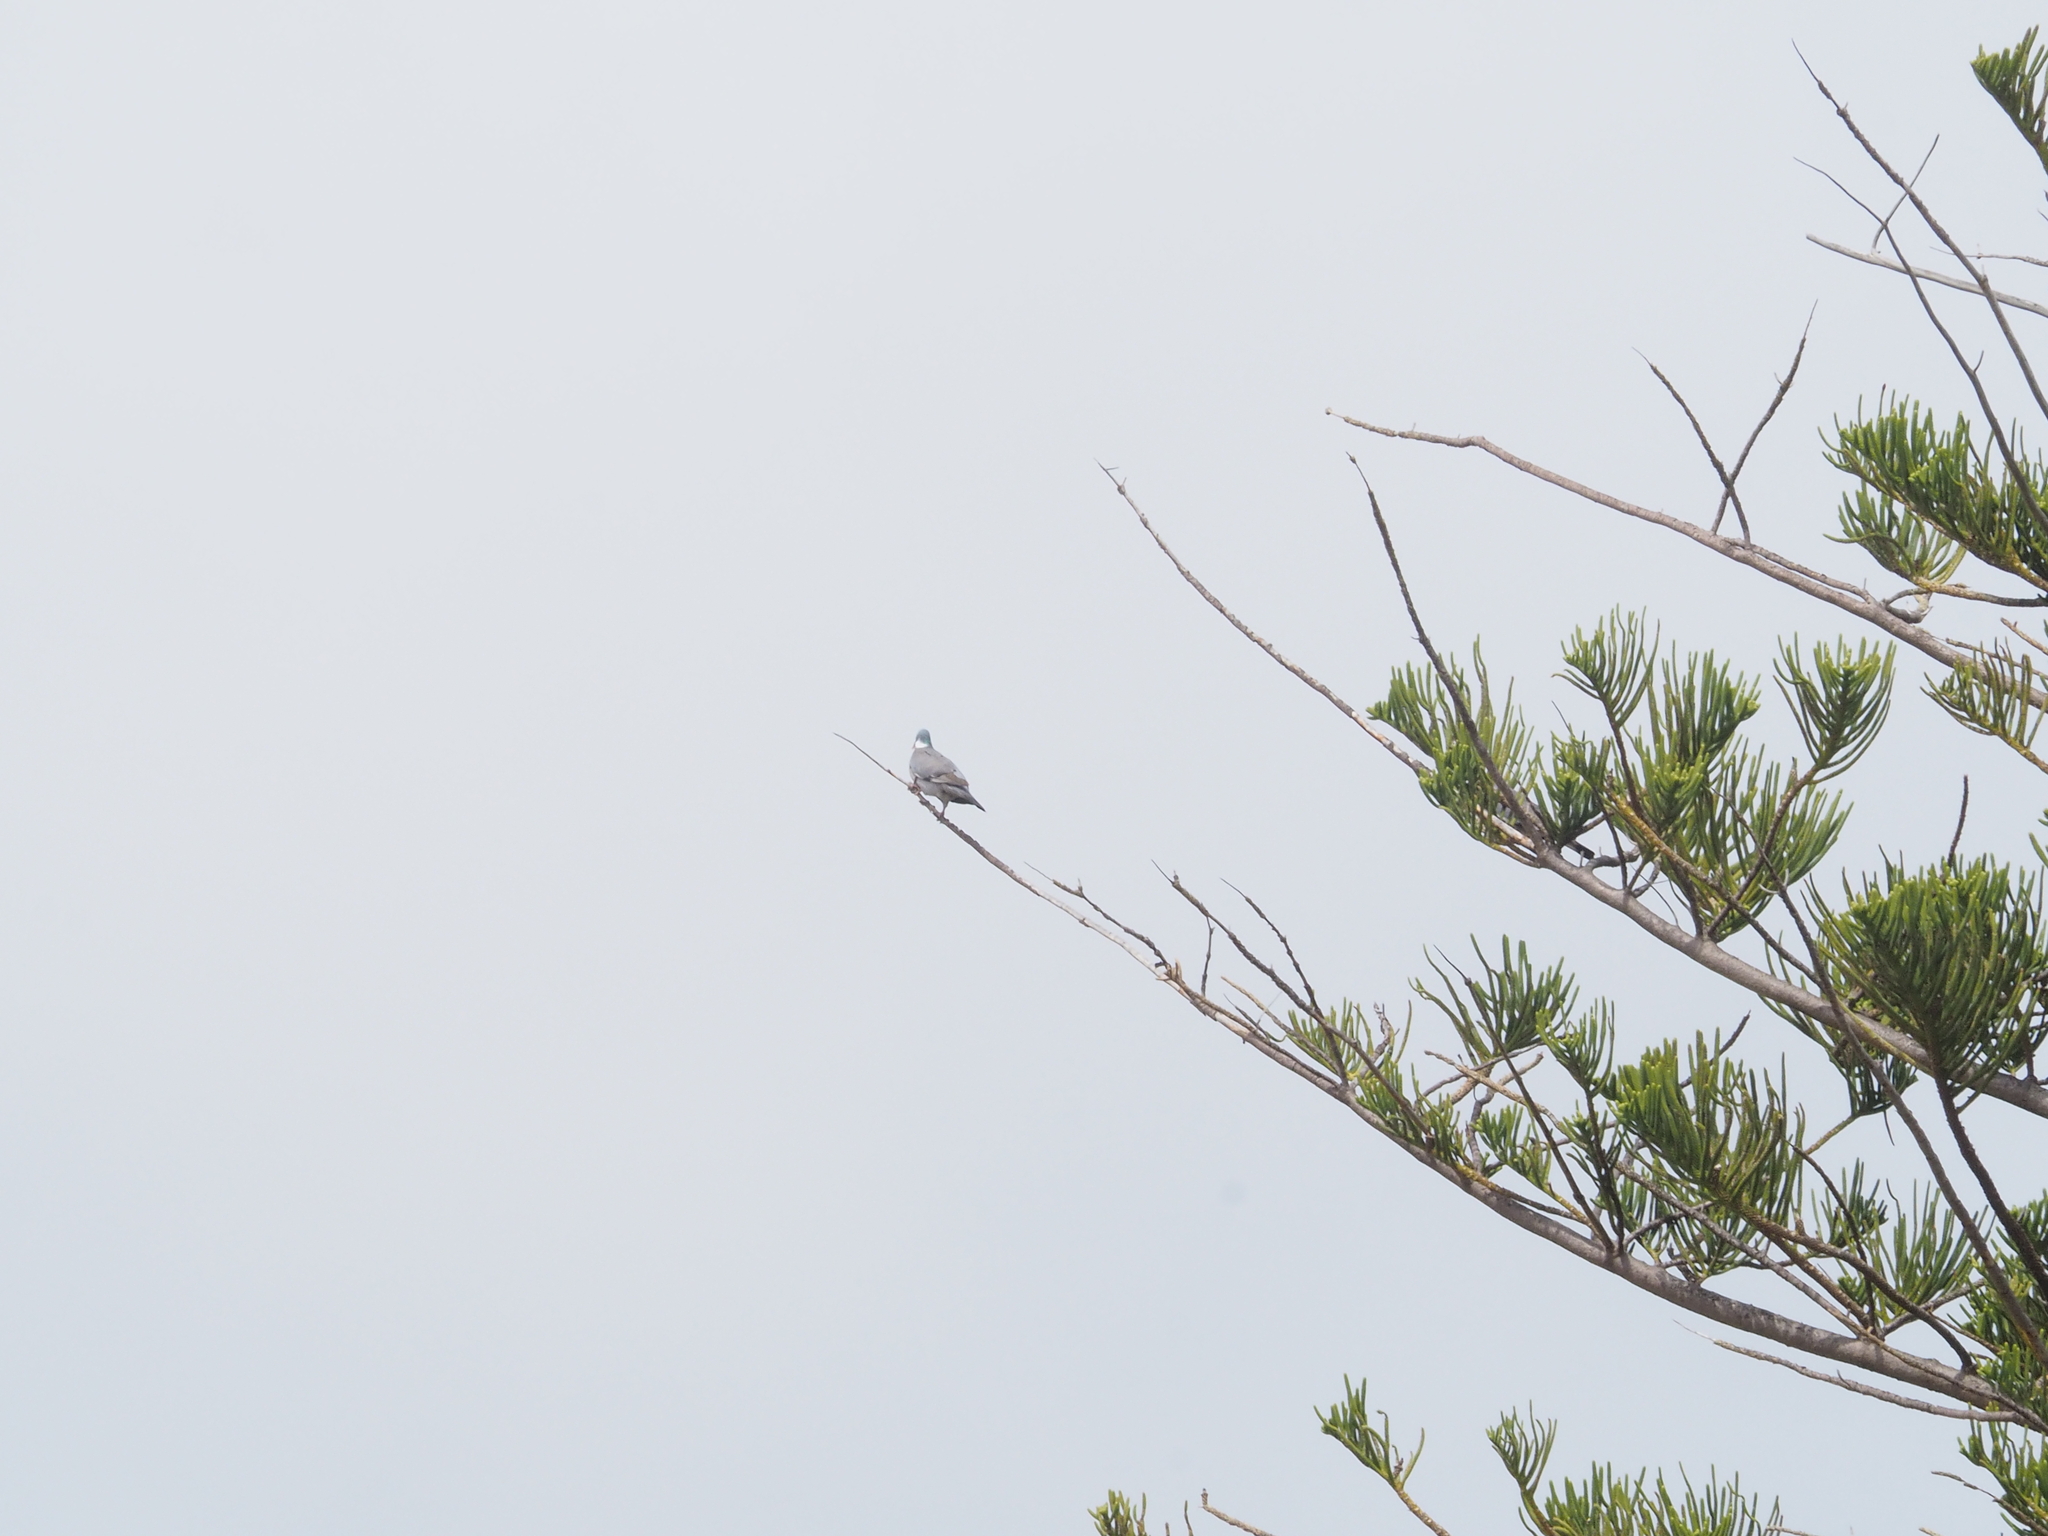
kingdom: Animalia
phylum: Chordata
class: Aves
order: Columbiformes
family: Columbidae
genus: Columba
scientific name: Columba palumbus
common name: Common wood pigeon
